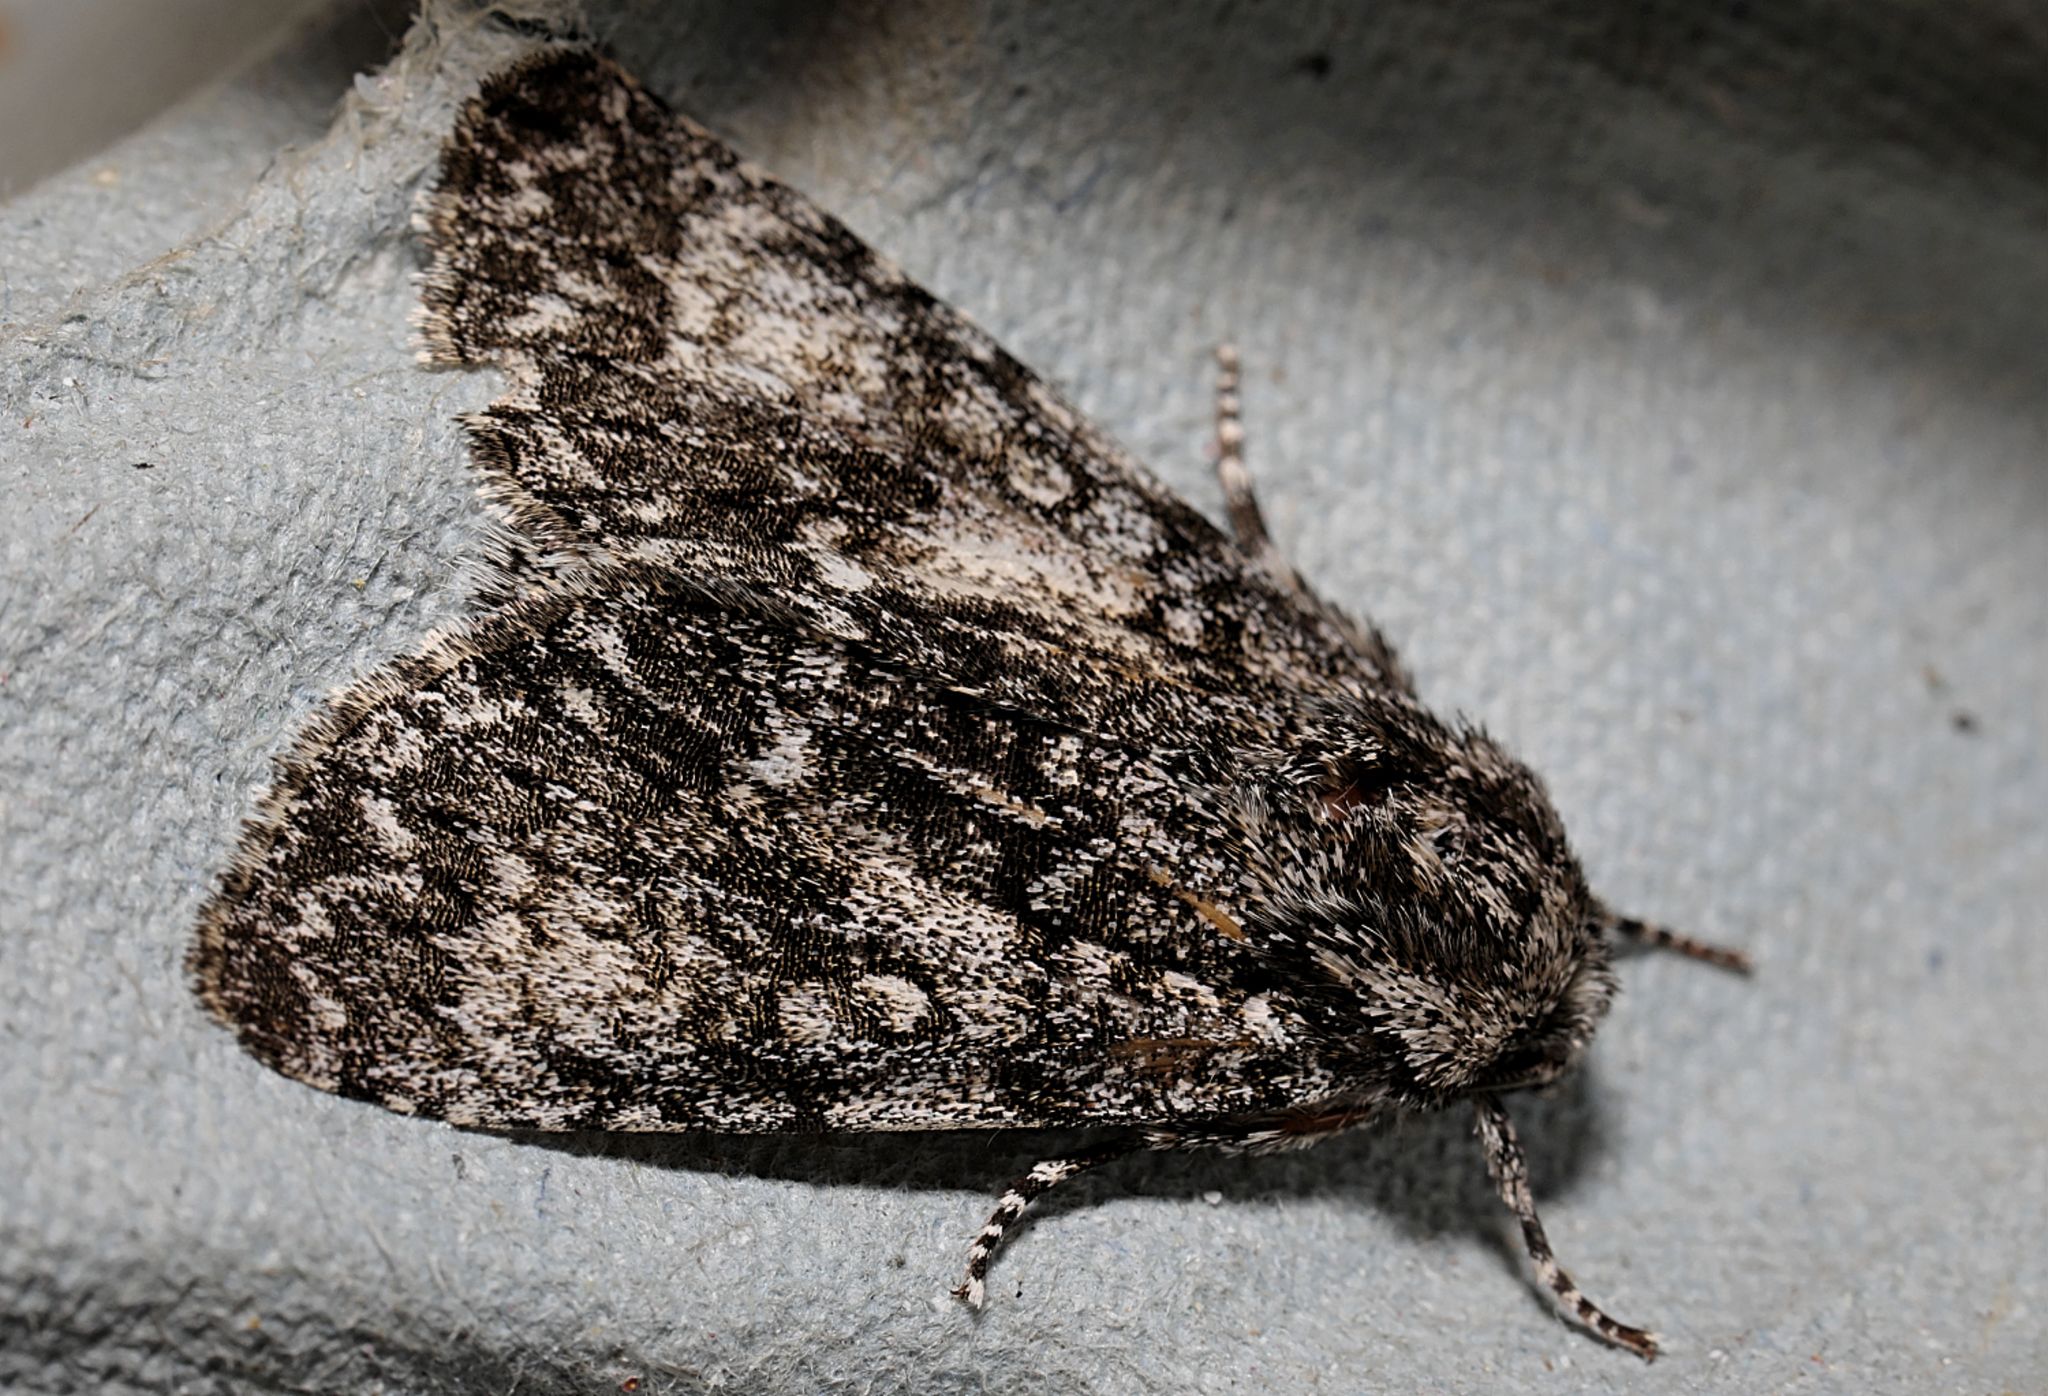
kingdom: Animalia
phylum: Arthropoda
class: Insecta
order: Lepidoptera
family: Noctuidae
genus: Acronicta
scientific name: Acronicta megacephala
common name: Poplar grey
